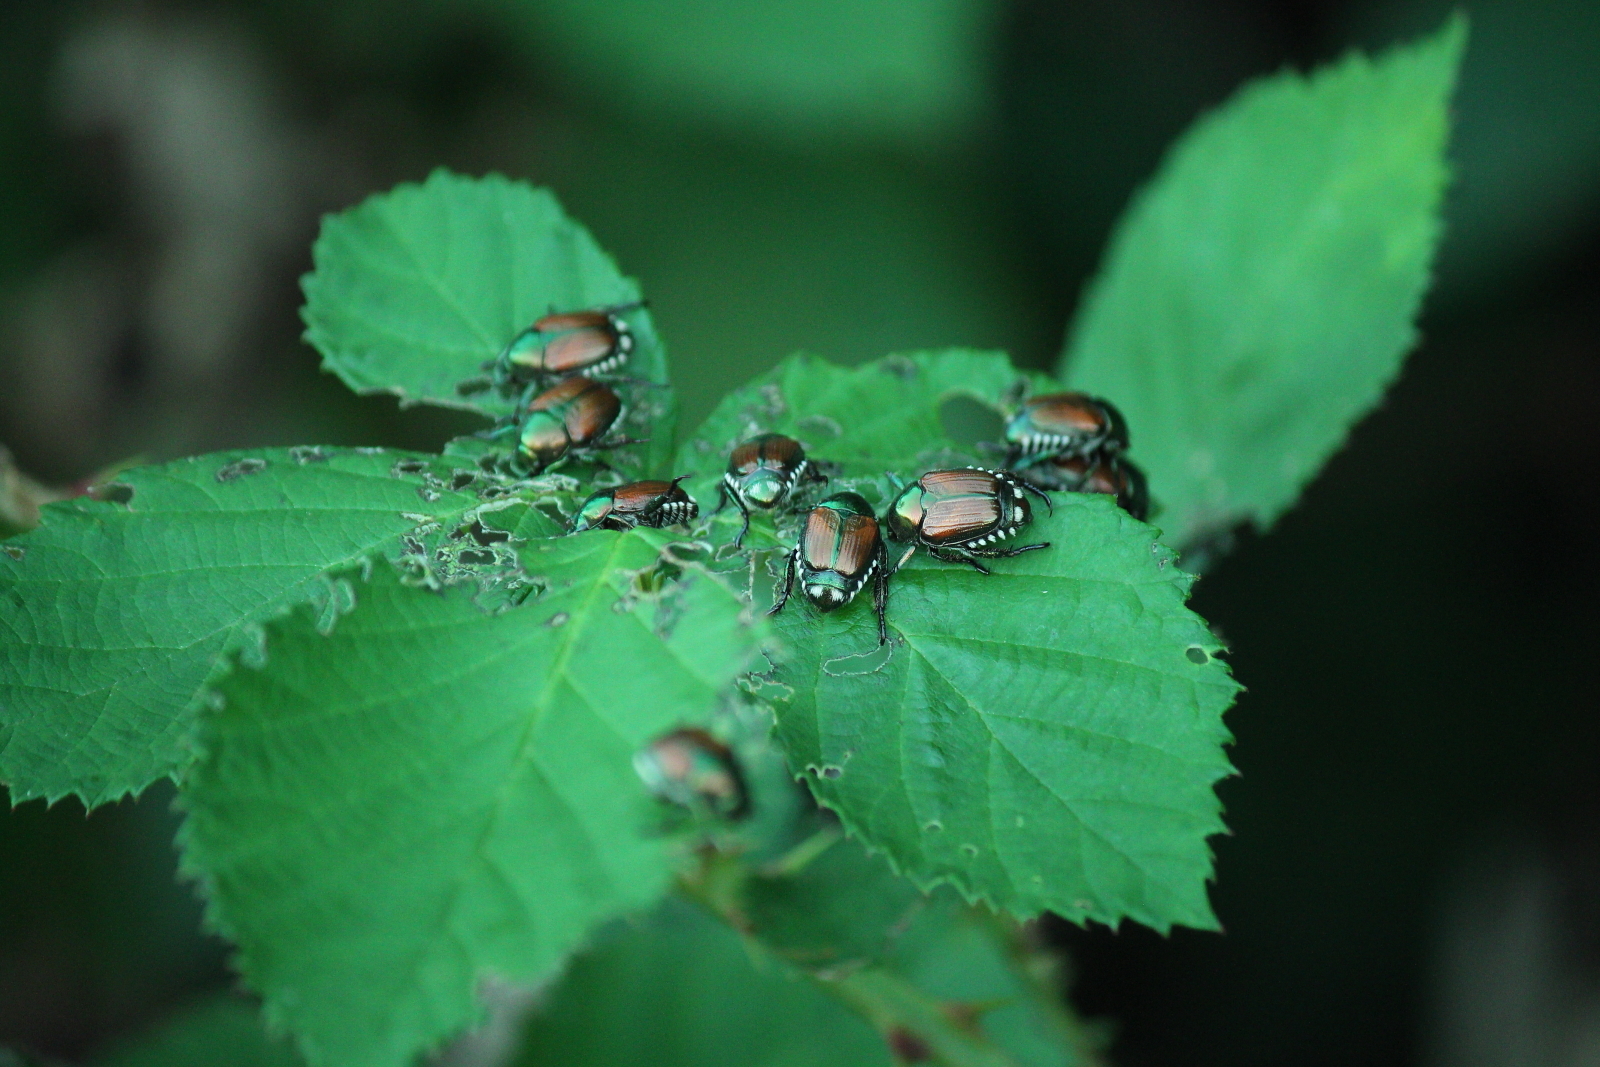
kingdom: Animalia
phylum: Arthropoda
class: Insecta
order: Coleoptera
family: Scarabaeidae
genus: Popillia
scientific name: Popillia japonica
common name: Japanese beetle
